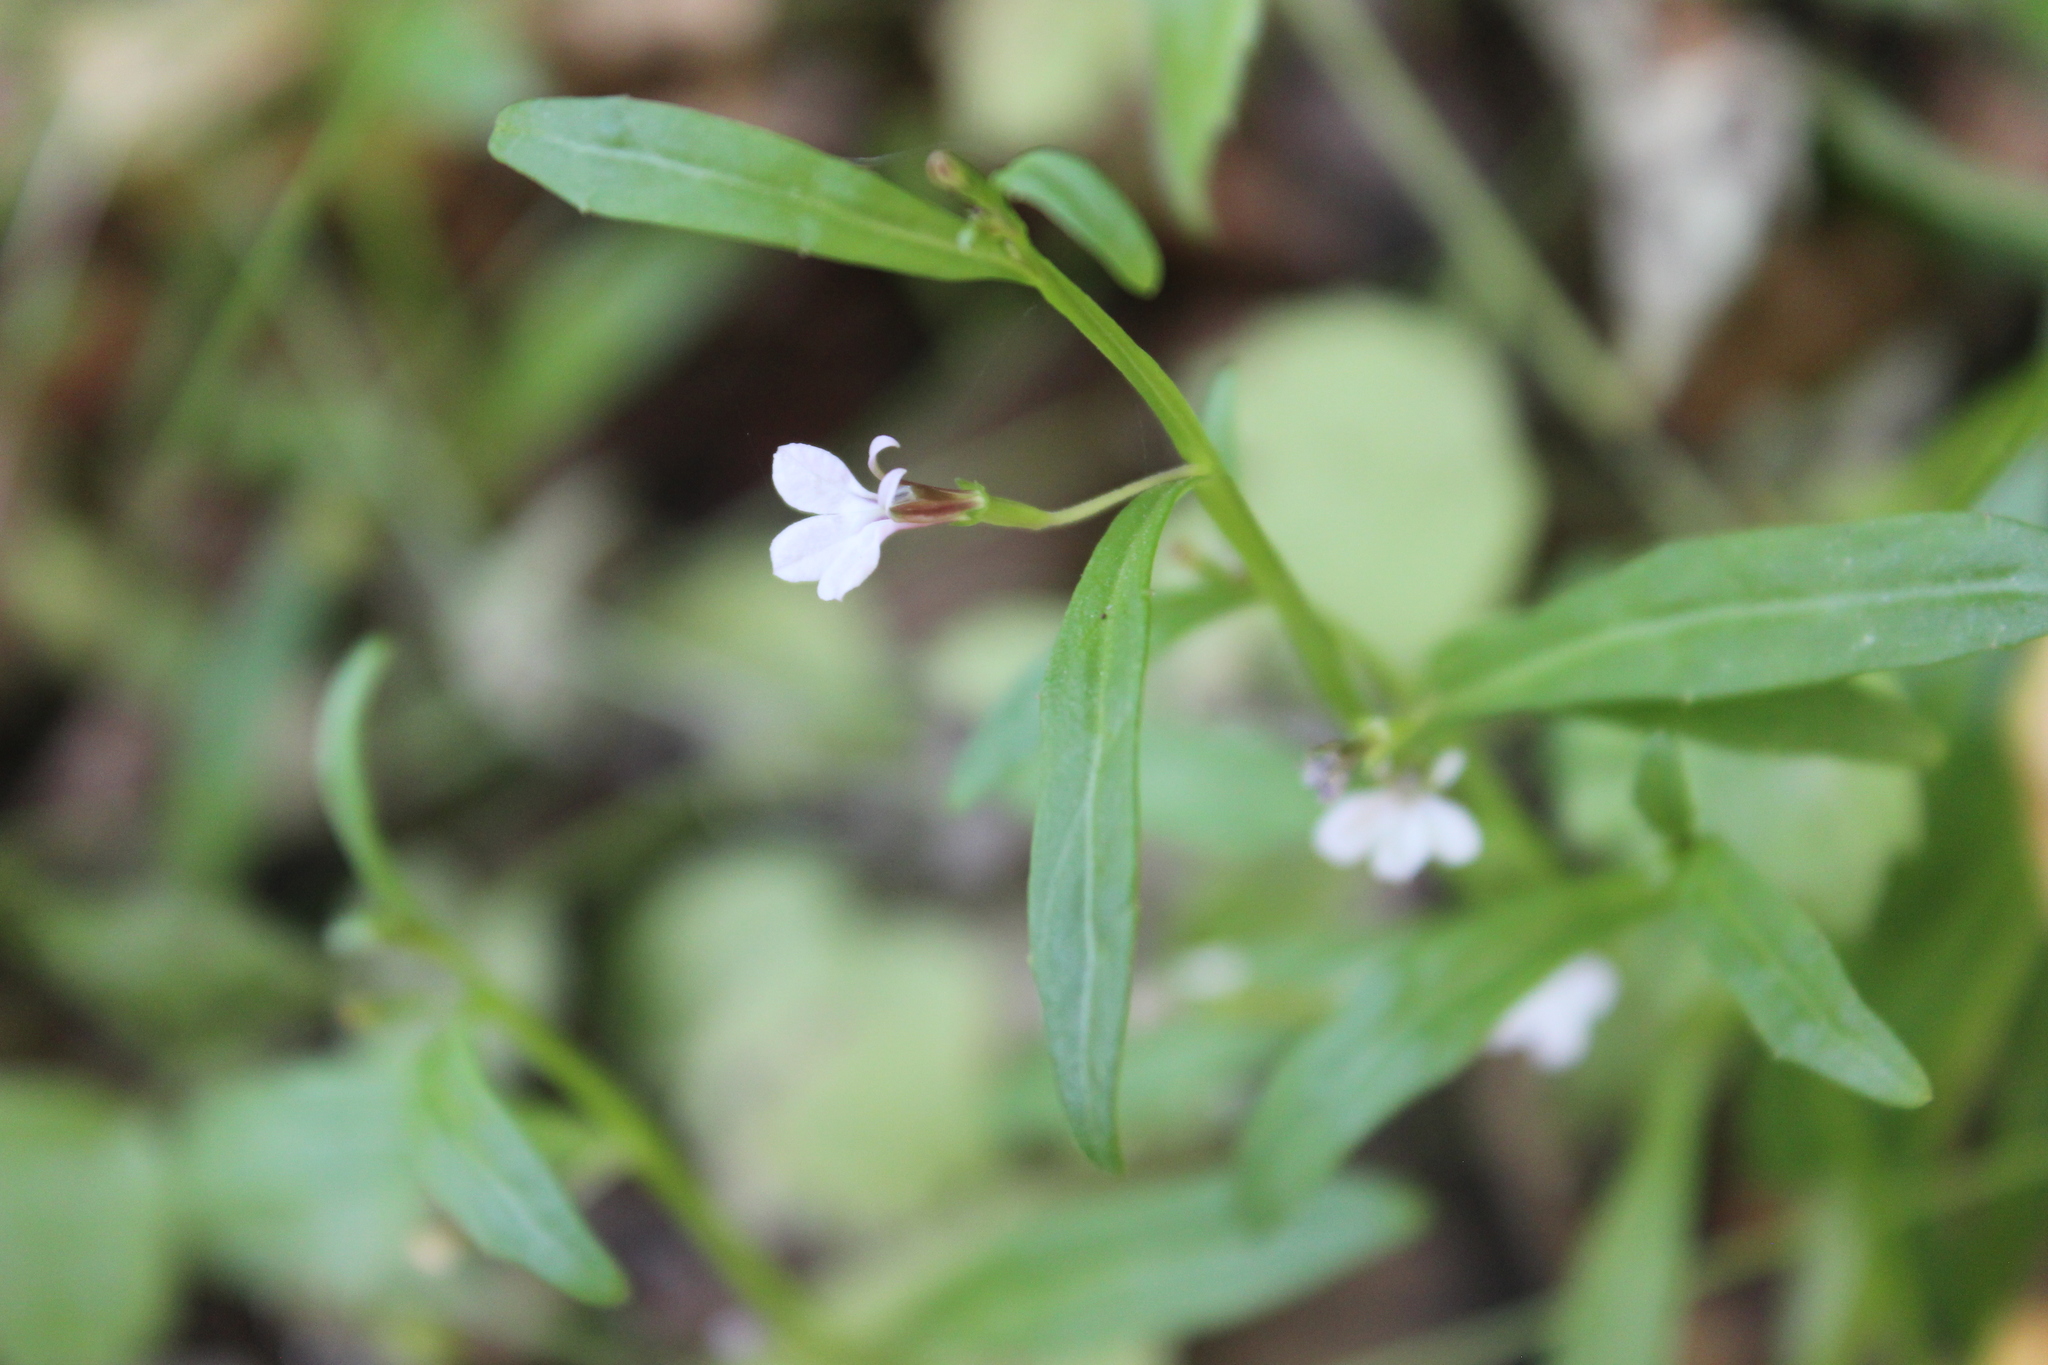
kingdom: Plantae
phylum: Tracheophyta
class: Magnoliopsida
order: Asterales
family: Campanulaceae
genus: Lobelia
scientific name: Lobelia anceps
